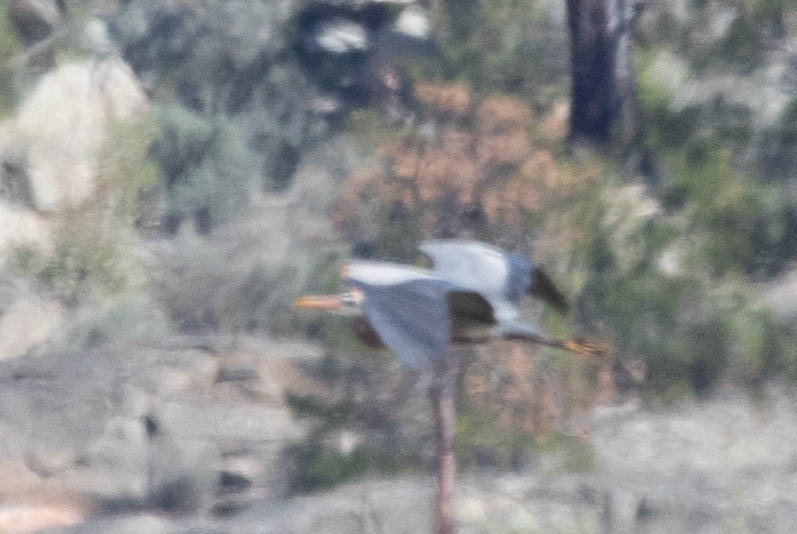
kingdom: Animalia
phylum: Chordata
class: Aves
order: Pelecaniformes
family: Ardeidae
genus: Ardea
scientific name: Ardea herodias
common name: Great blue heron
